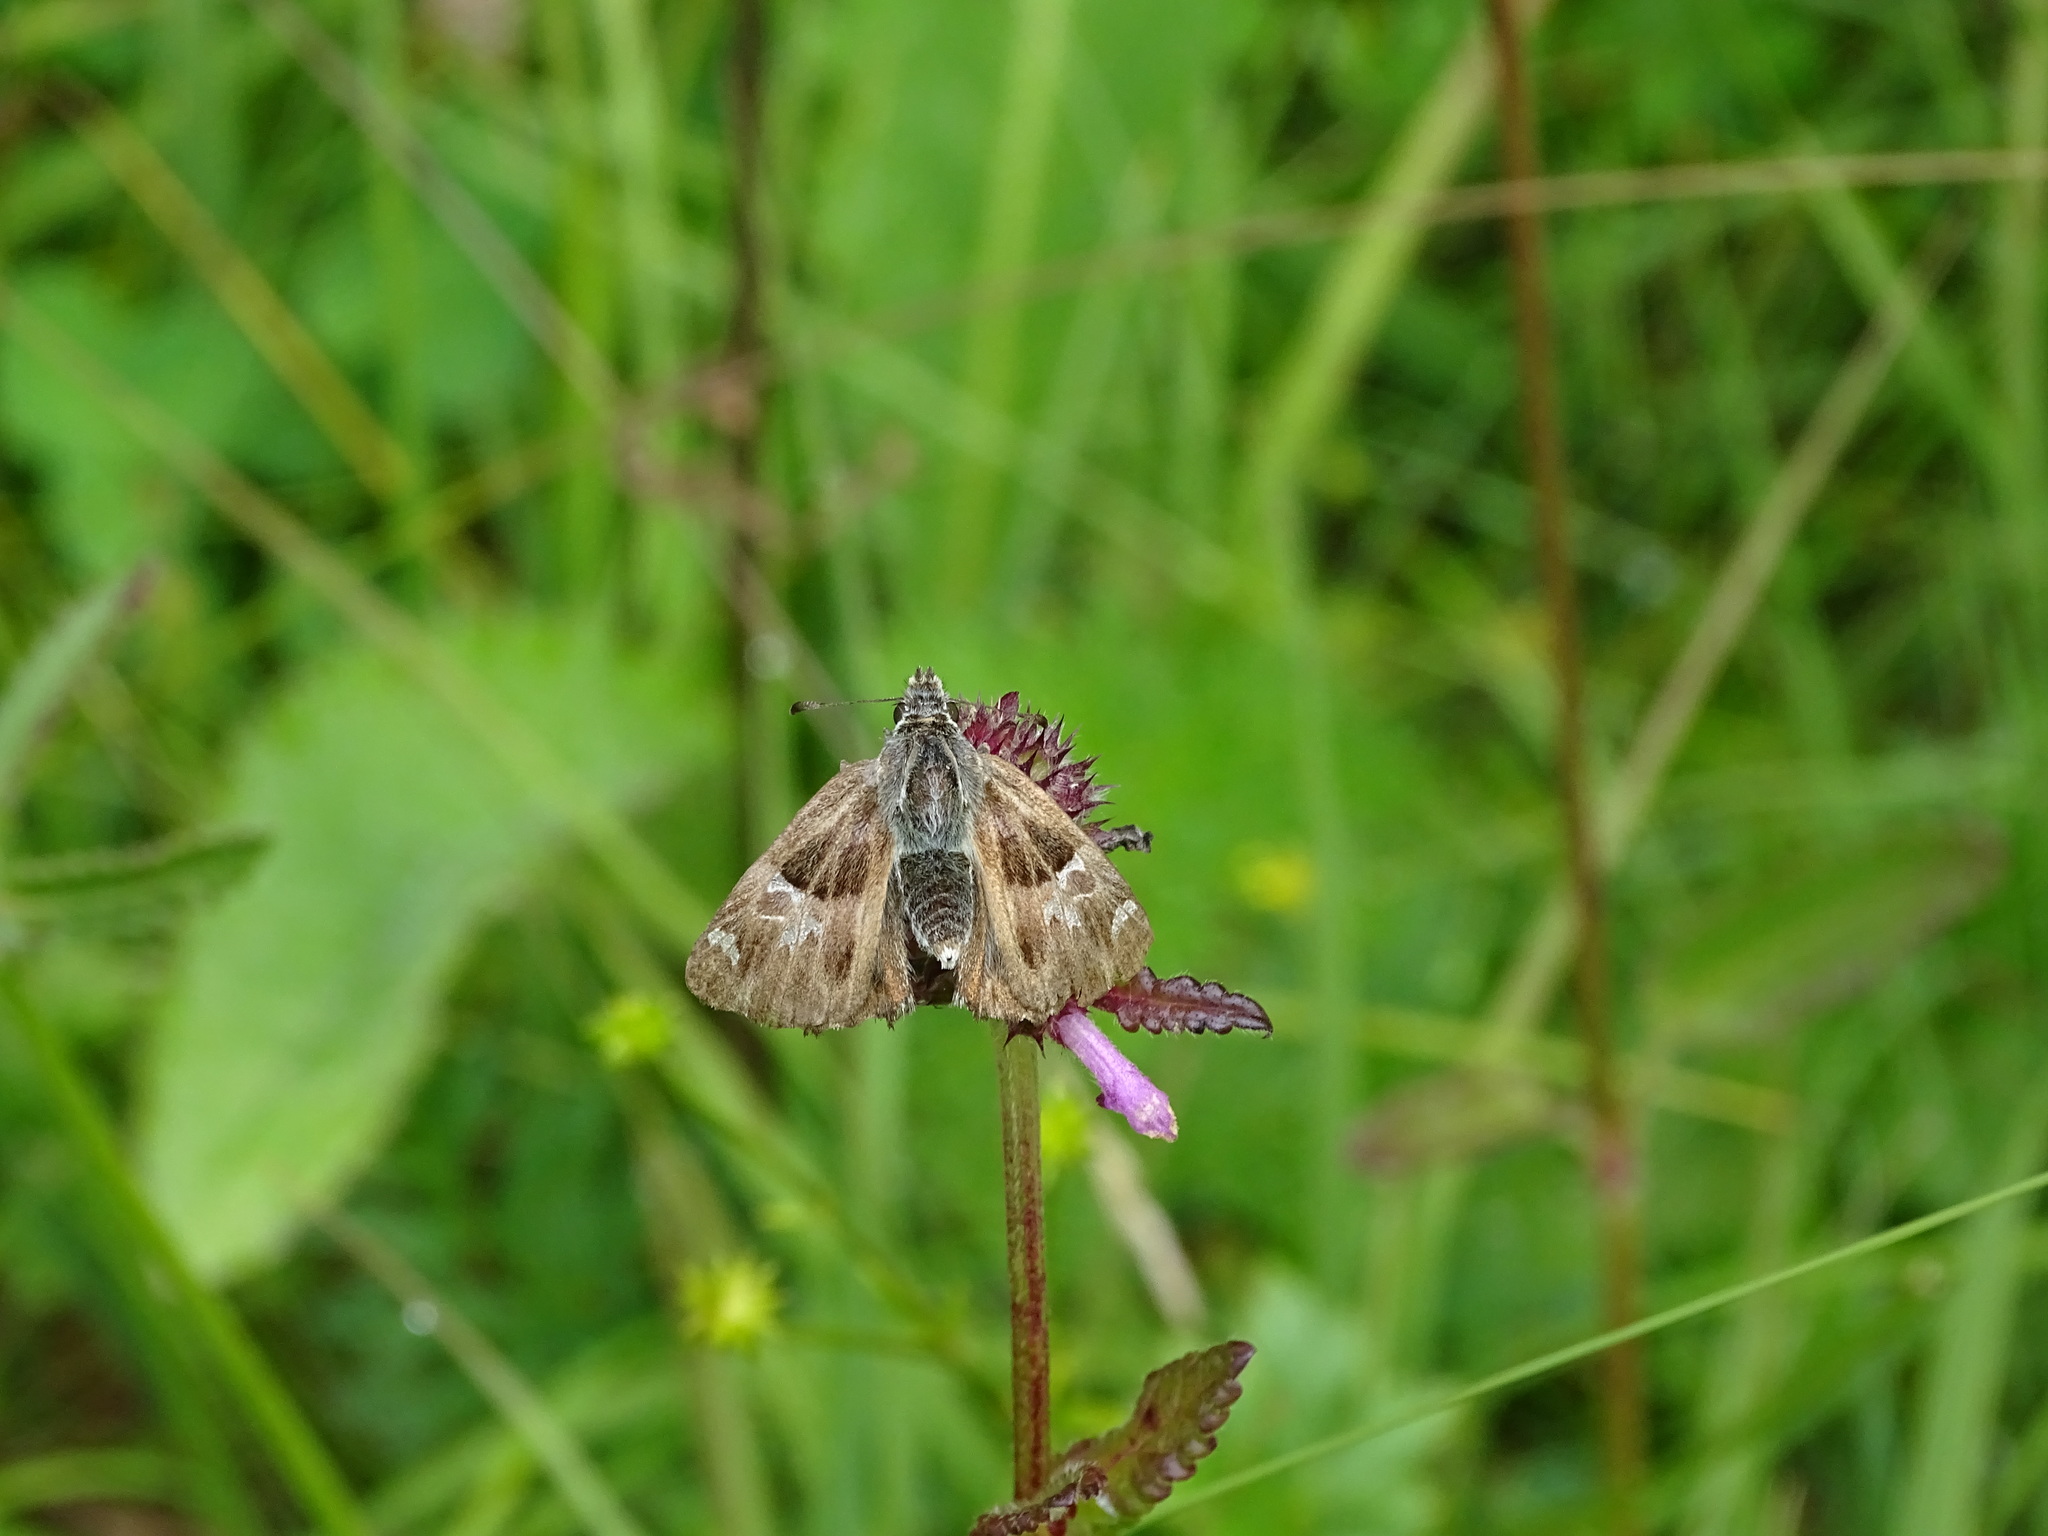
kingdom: Animalia
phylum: Arthropoda
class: Insecta
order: Lepidoptera
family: Hesperiidae
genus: Carcharodus
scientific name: Carcharodus floccifera
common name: Tufted marbled skipper
